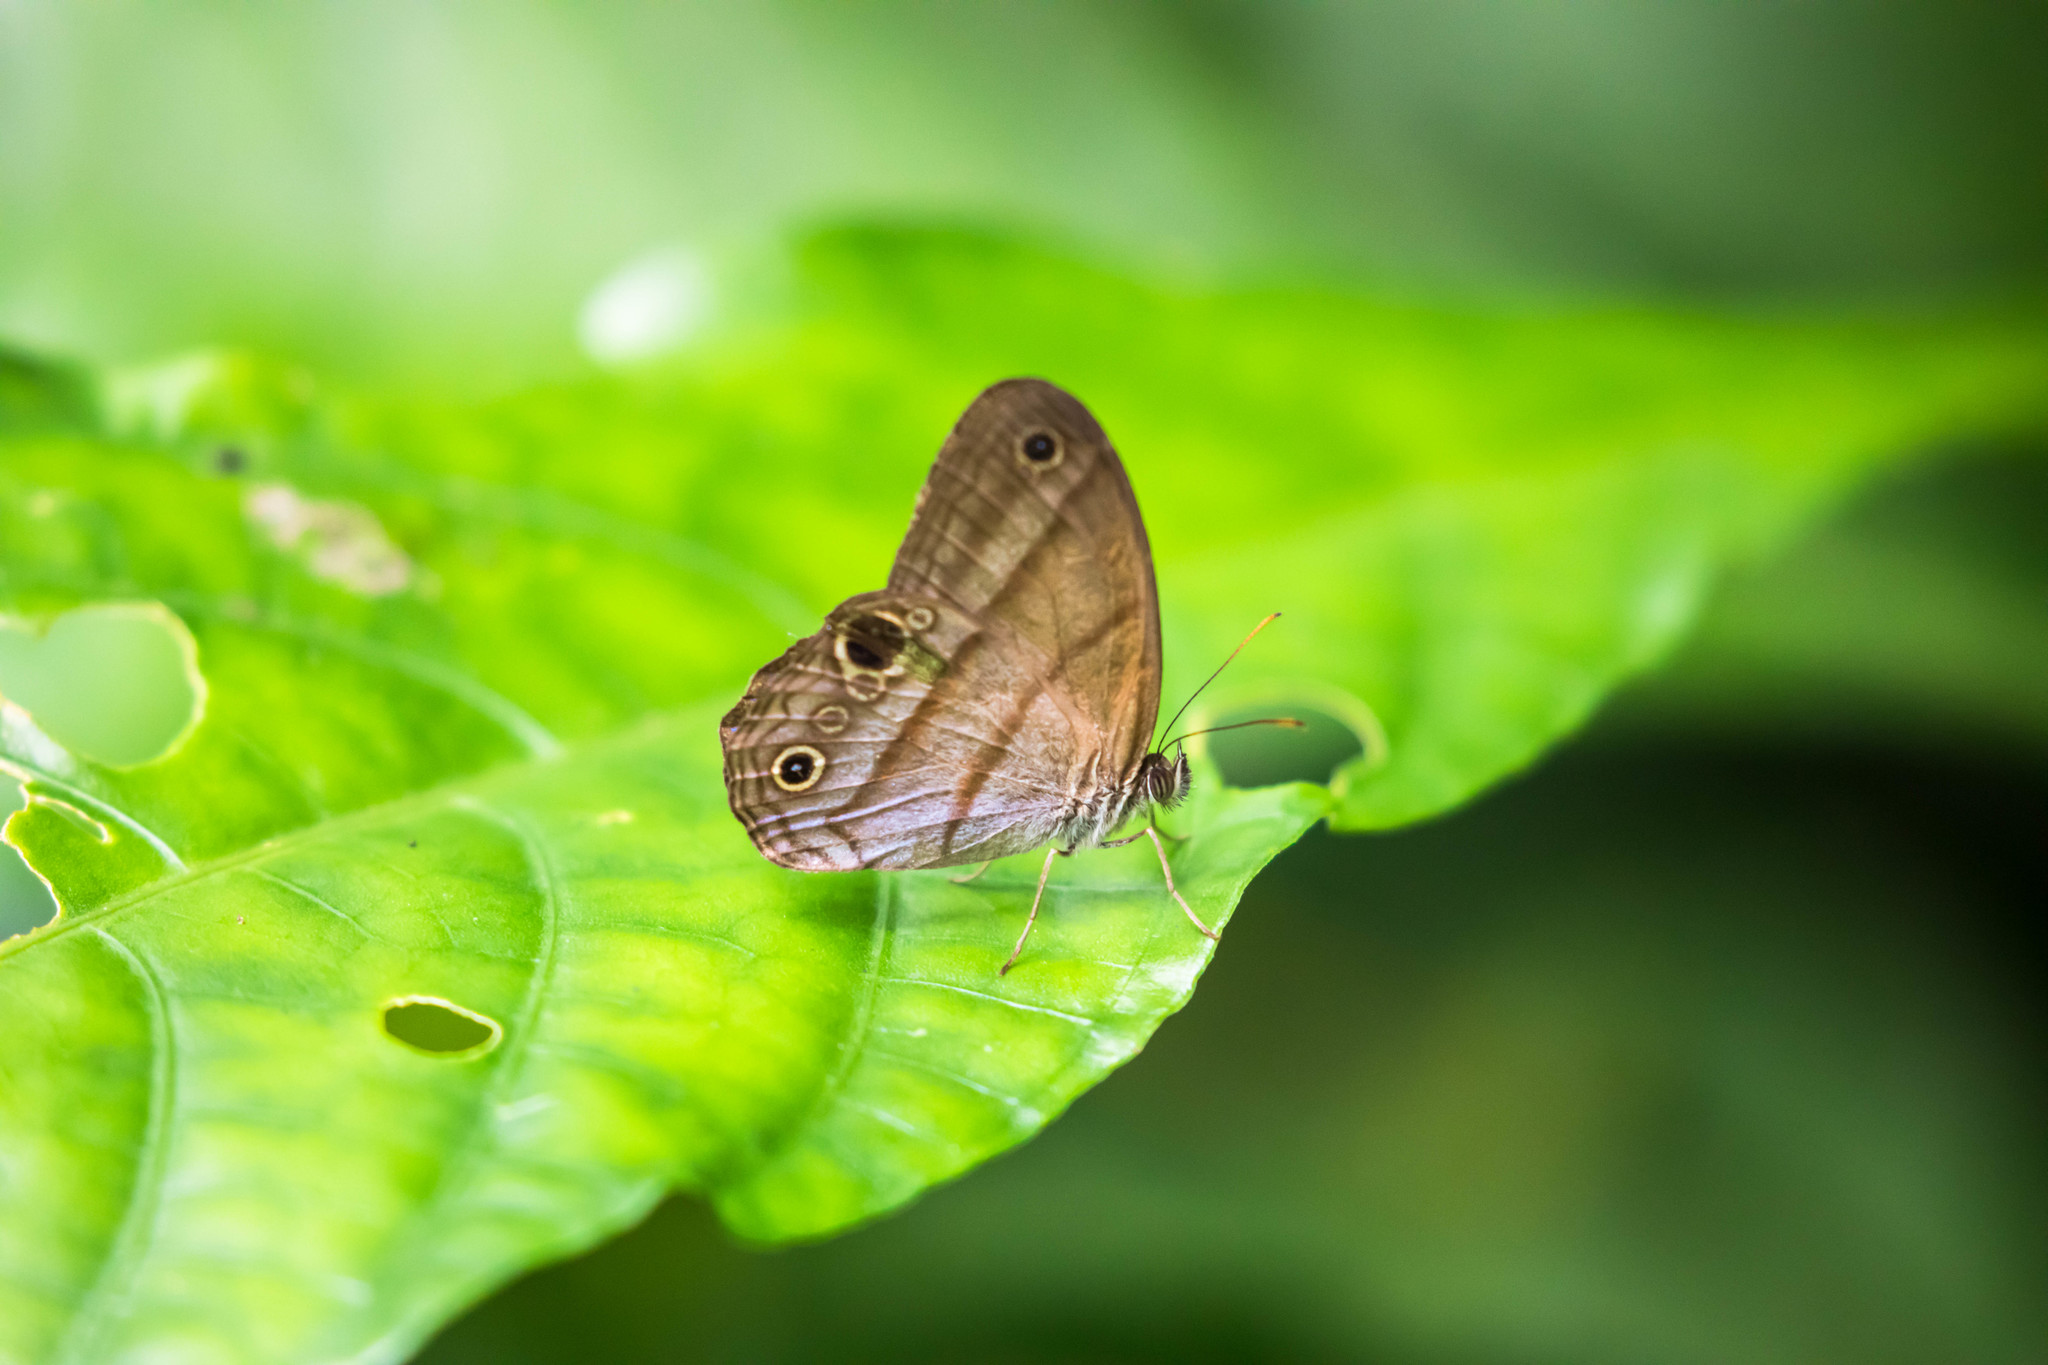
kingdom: Animalia
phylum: Arthropoda
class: Insecta
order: Lepidoptera
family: Nymphalidae
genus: Amiga
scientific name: Amiga arnaca
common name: Blue-topped satyr
